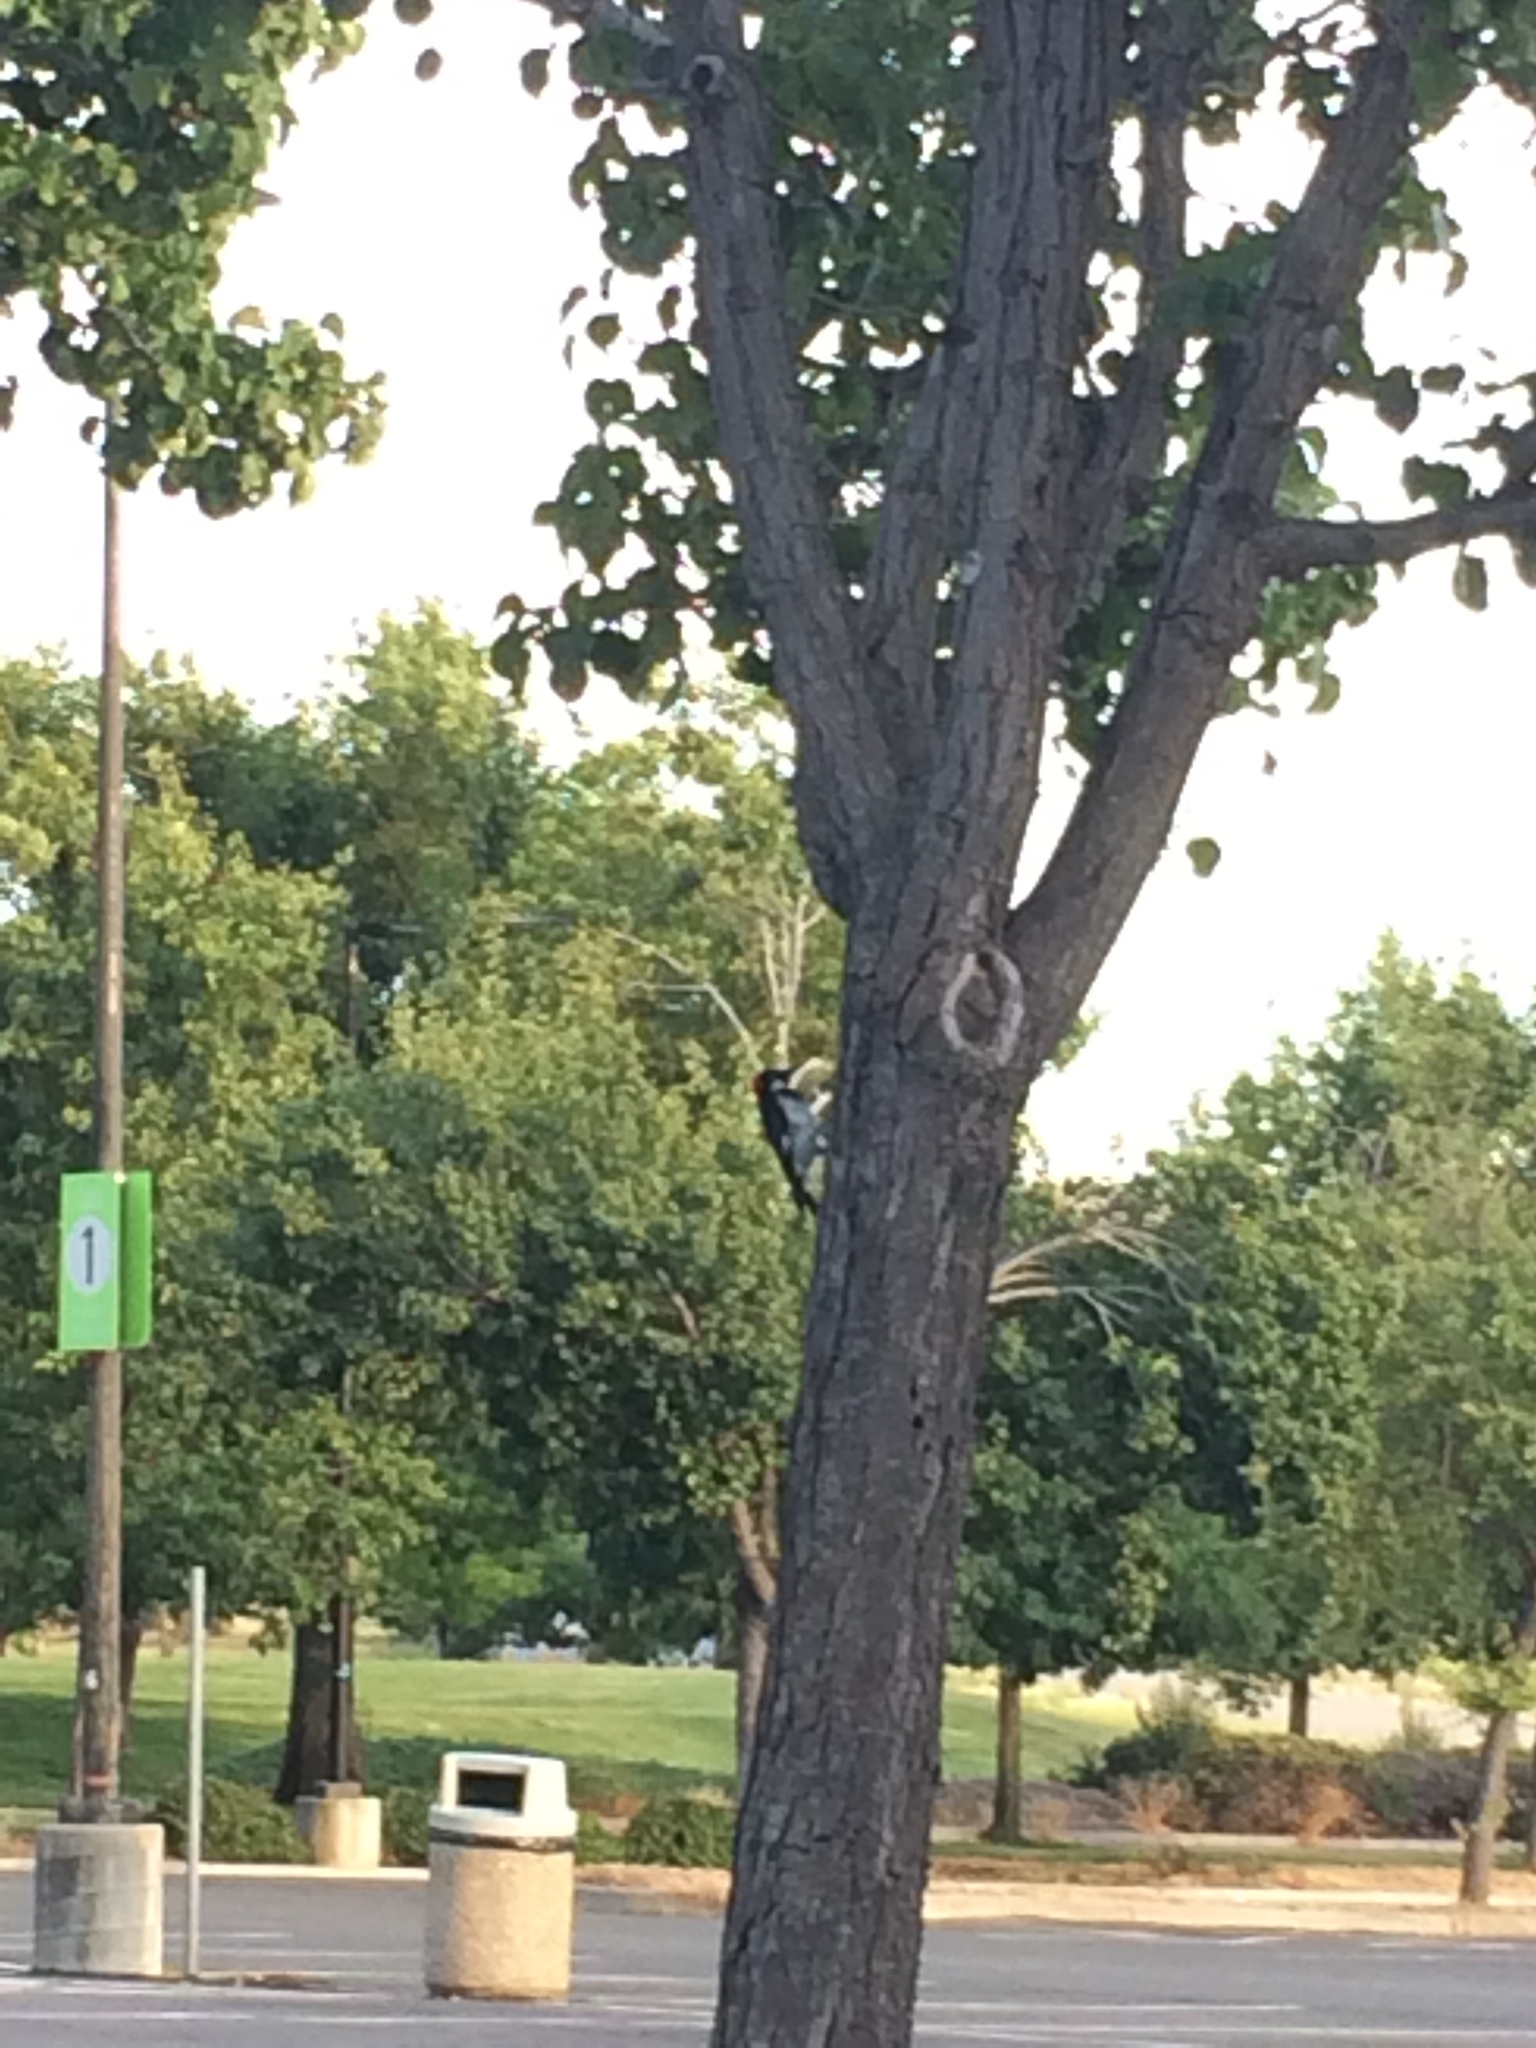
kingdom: Animalia
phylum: Chordata
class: Aves
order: Piciformes
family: Picidae
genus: Melanerpes
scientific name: Melanerpes formicivorus
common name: Acorn woodpecker
